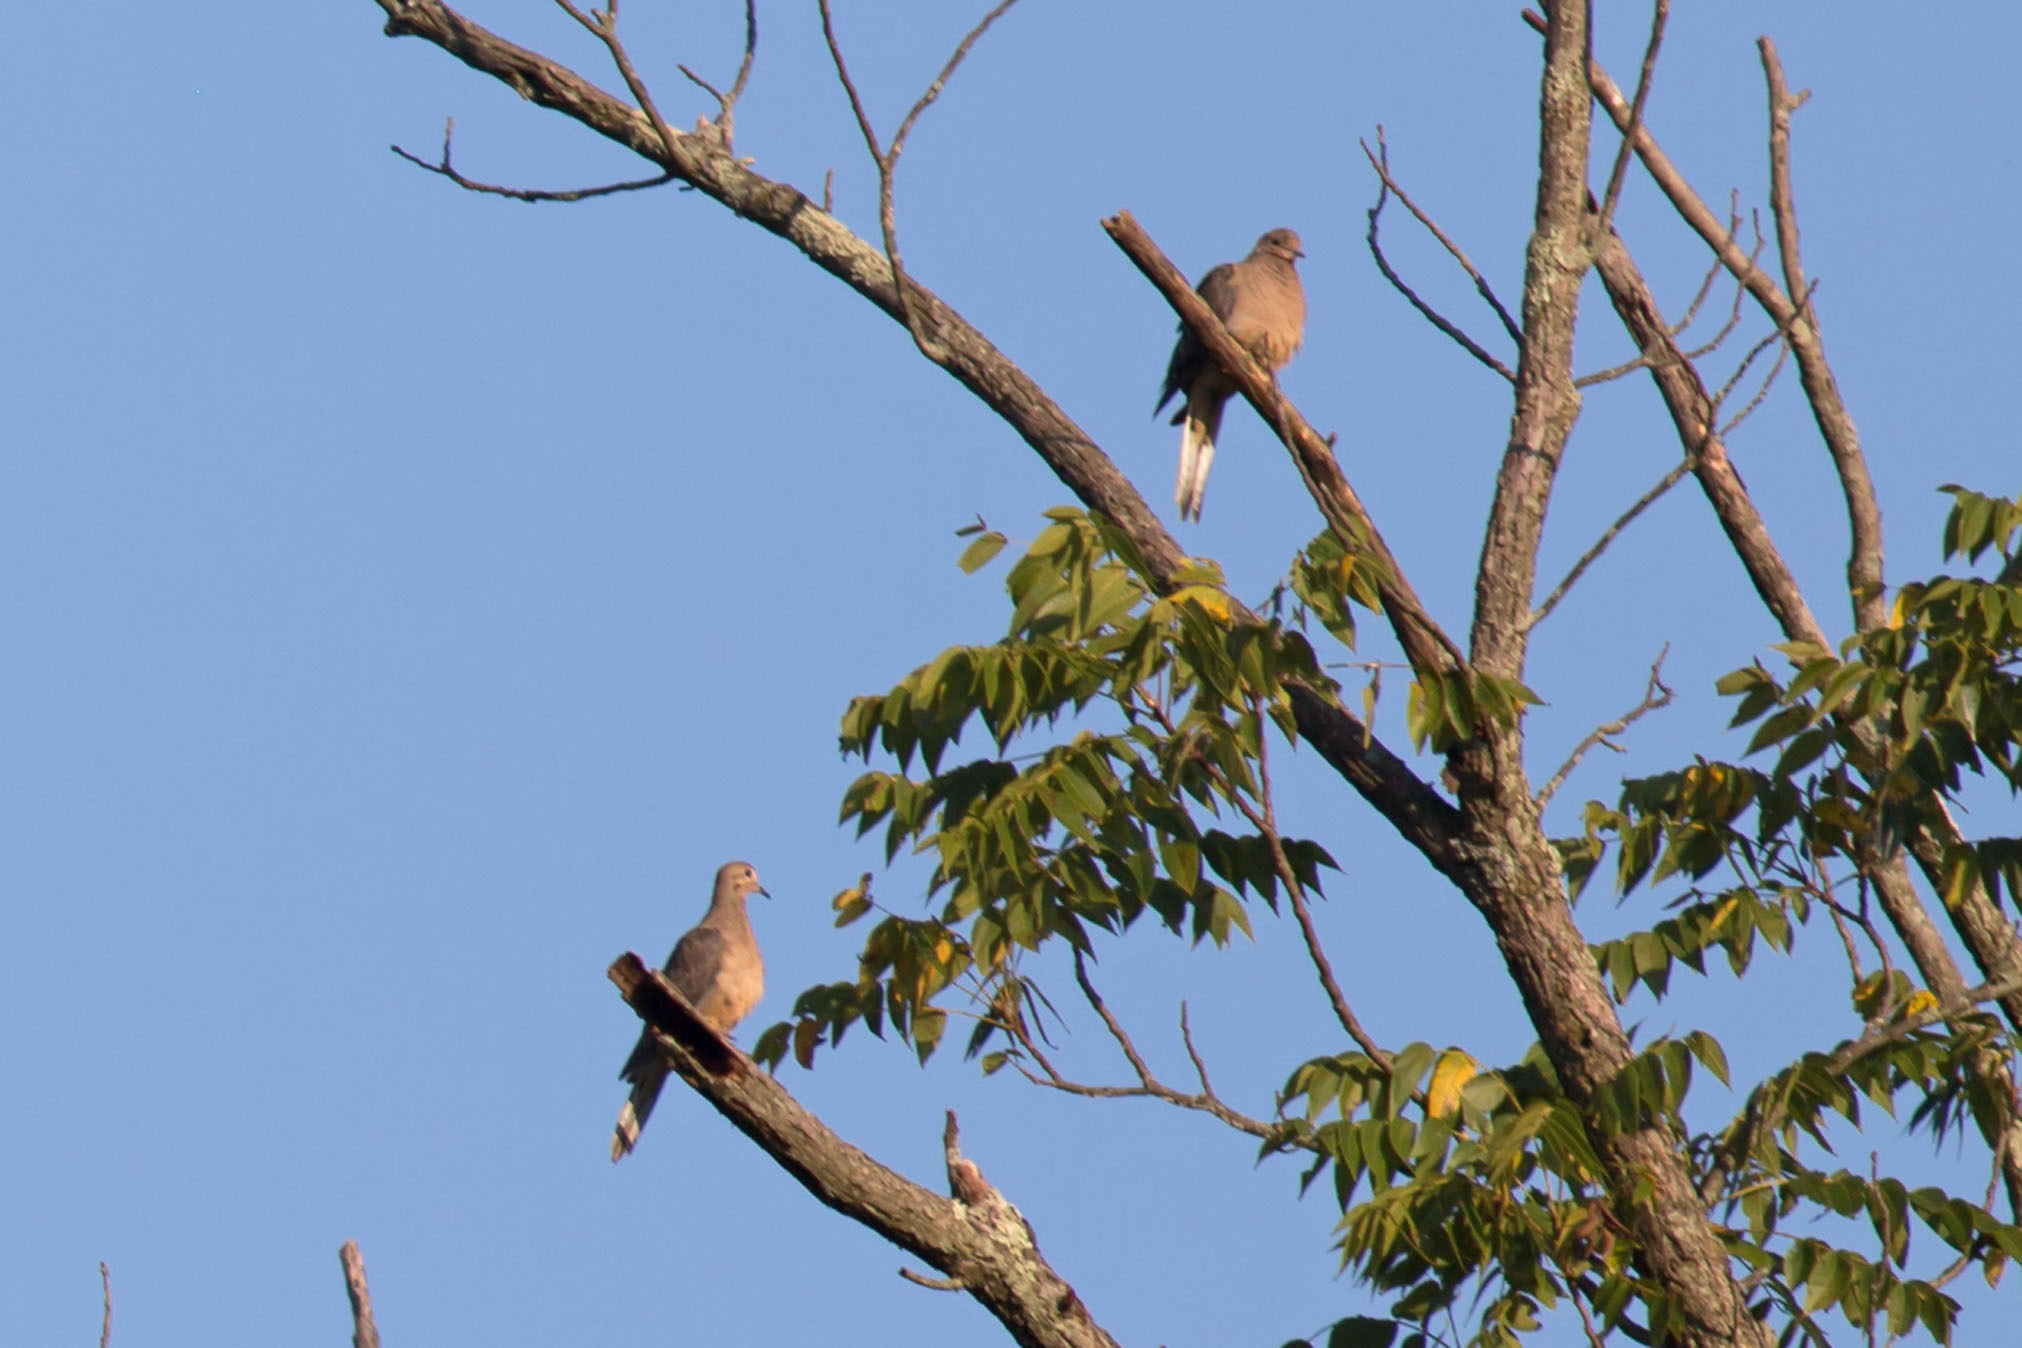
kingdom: Animalia
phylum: Chordata
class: Aves
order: Columbiformes
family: Columbidae
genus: Zenaida
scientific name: Zenaida macroura
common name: Mourning dove
